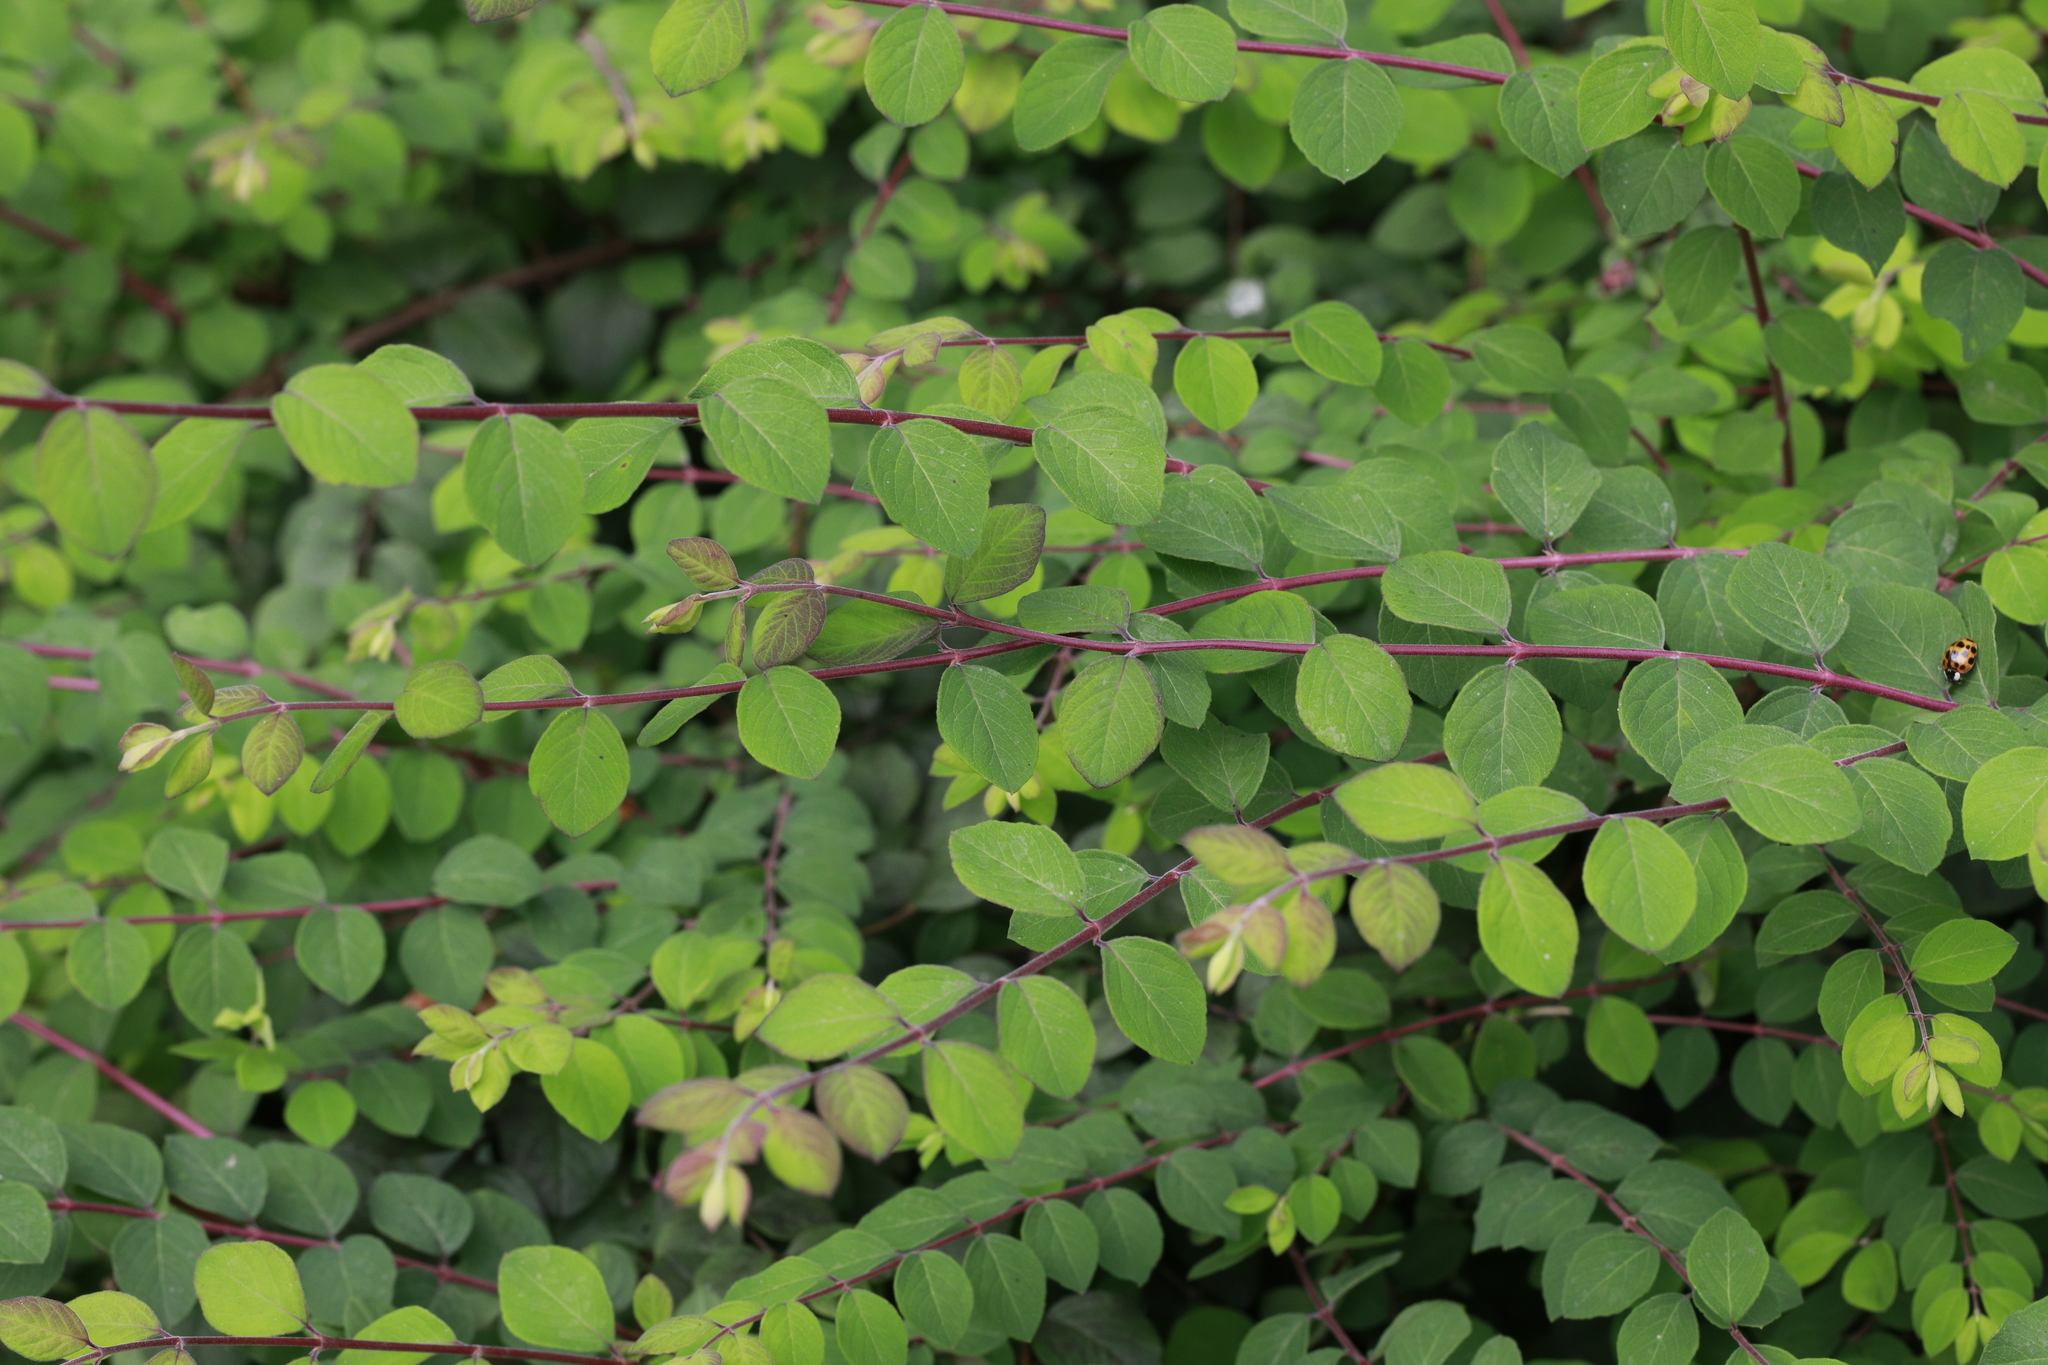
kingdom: Plantae
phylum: Tracheophyta
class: Magnoliopsida
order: Dipsacales
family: Caprifoliaceae
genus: Symphoricarpos
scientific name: Symphoricarpos chenaultii
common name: Hybrid coralberry
